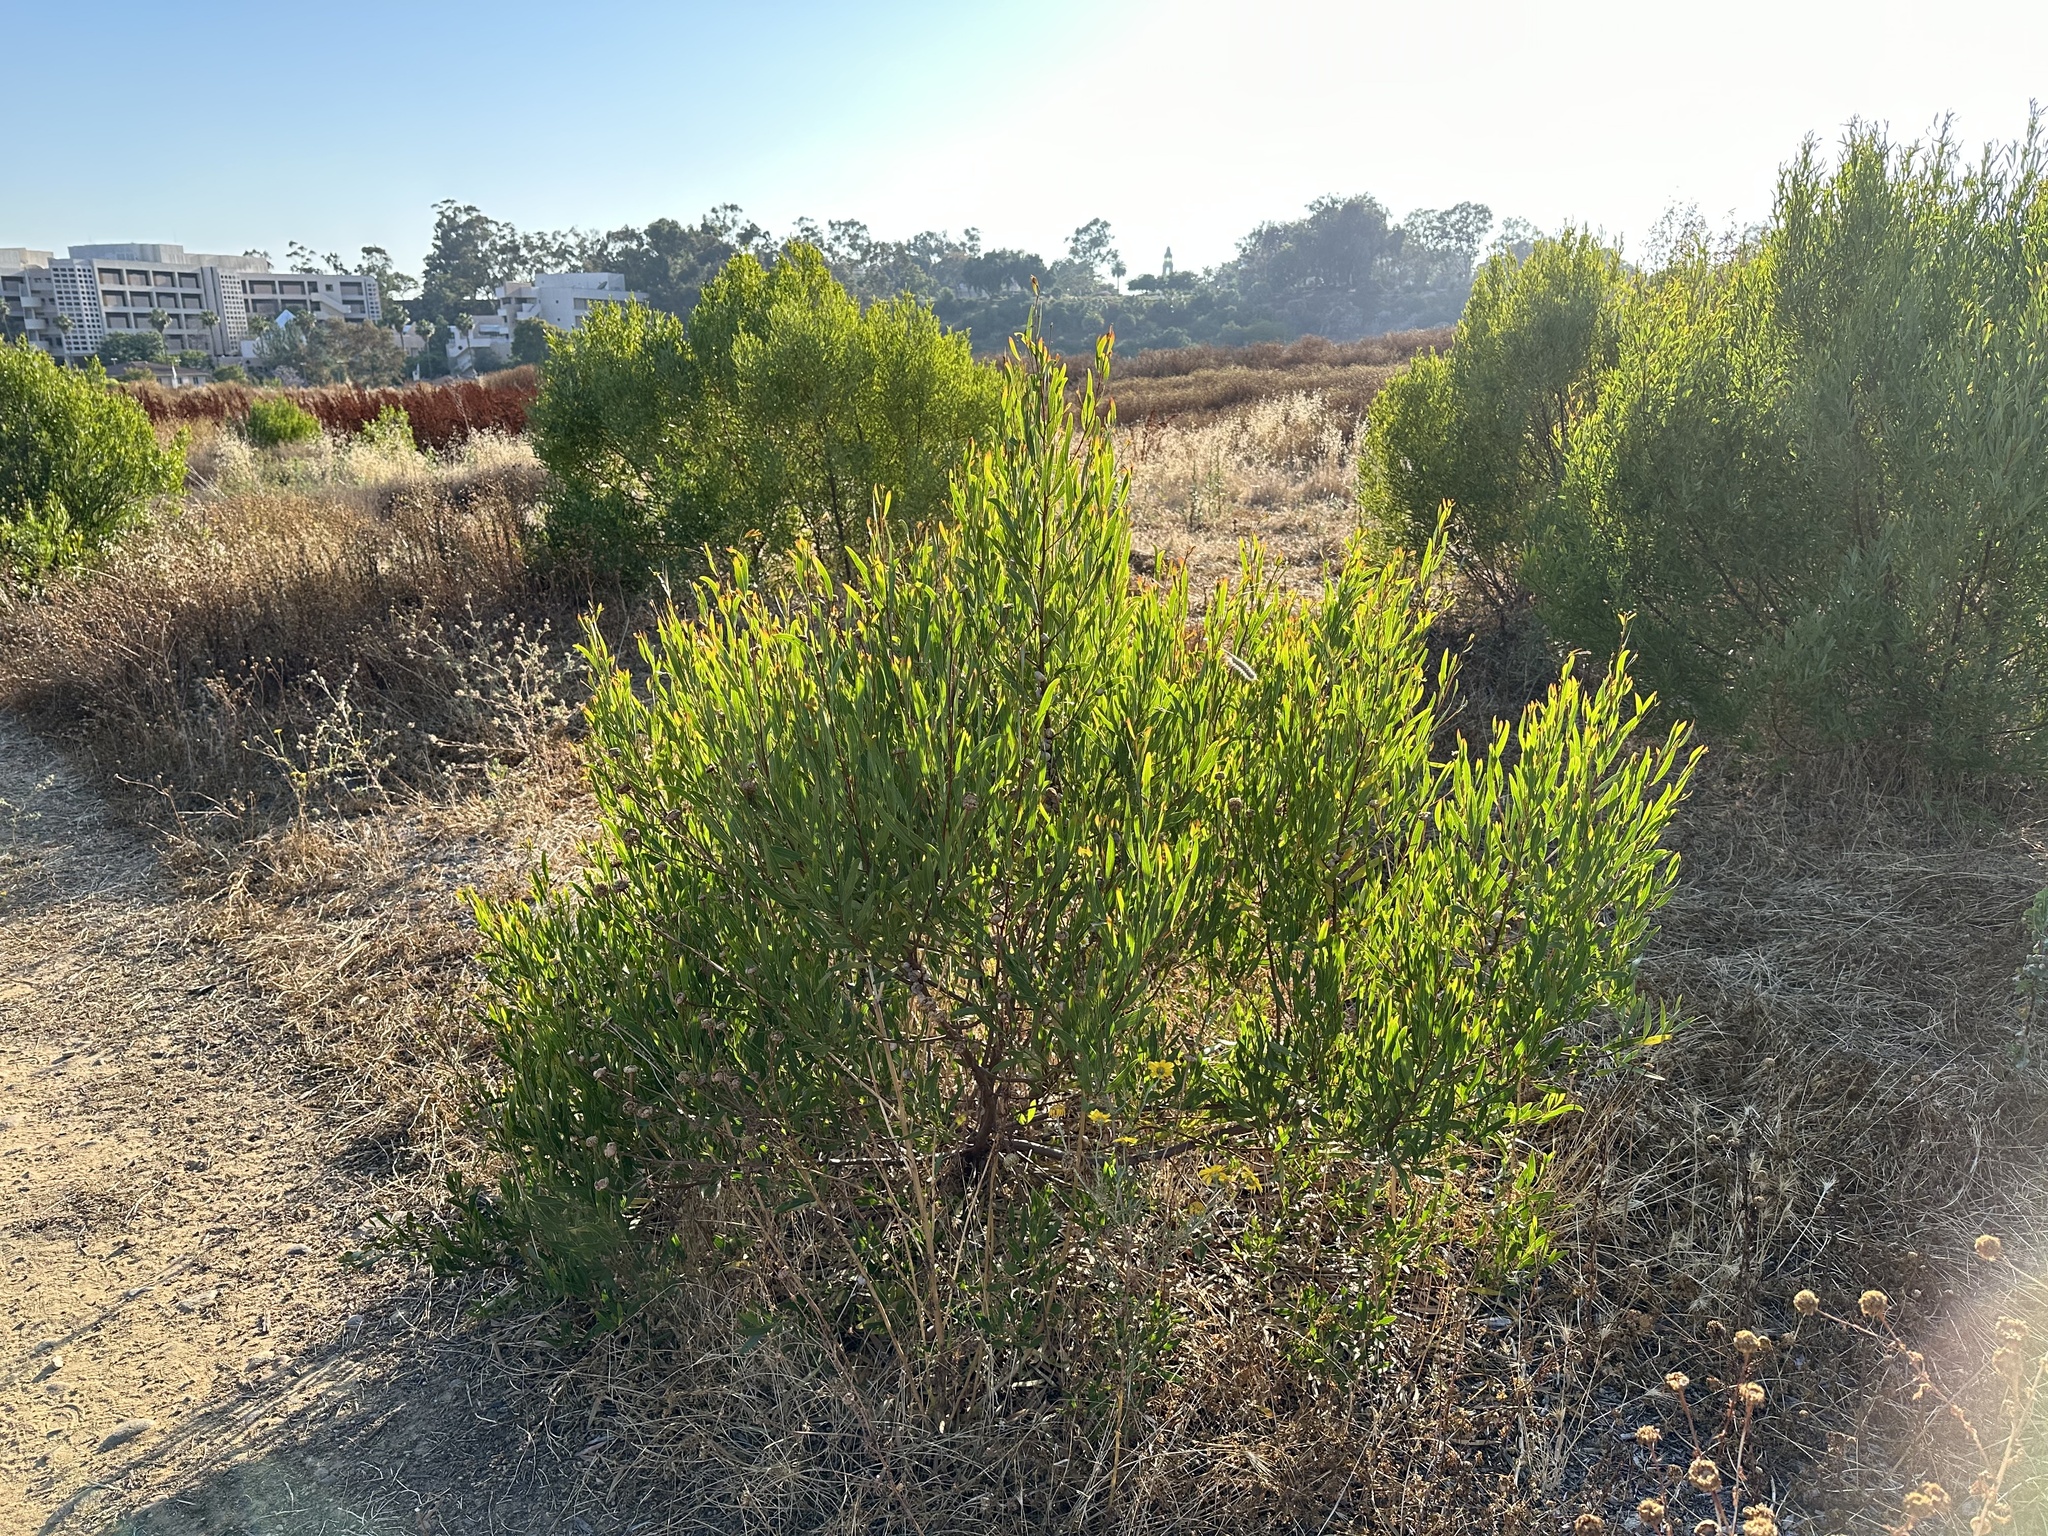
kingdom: Plantae
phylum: Tracheophyta
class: Magnoliopsida
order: Fabales
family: Fabaceae
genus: Acacia
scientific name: Acacia cyclops
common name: Coastal wattle
